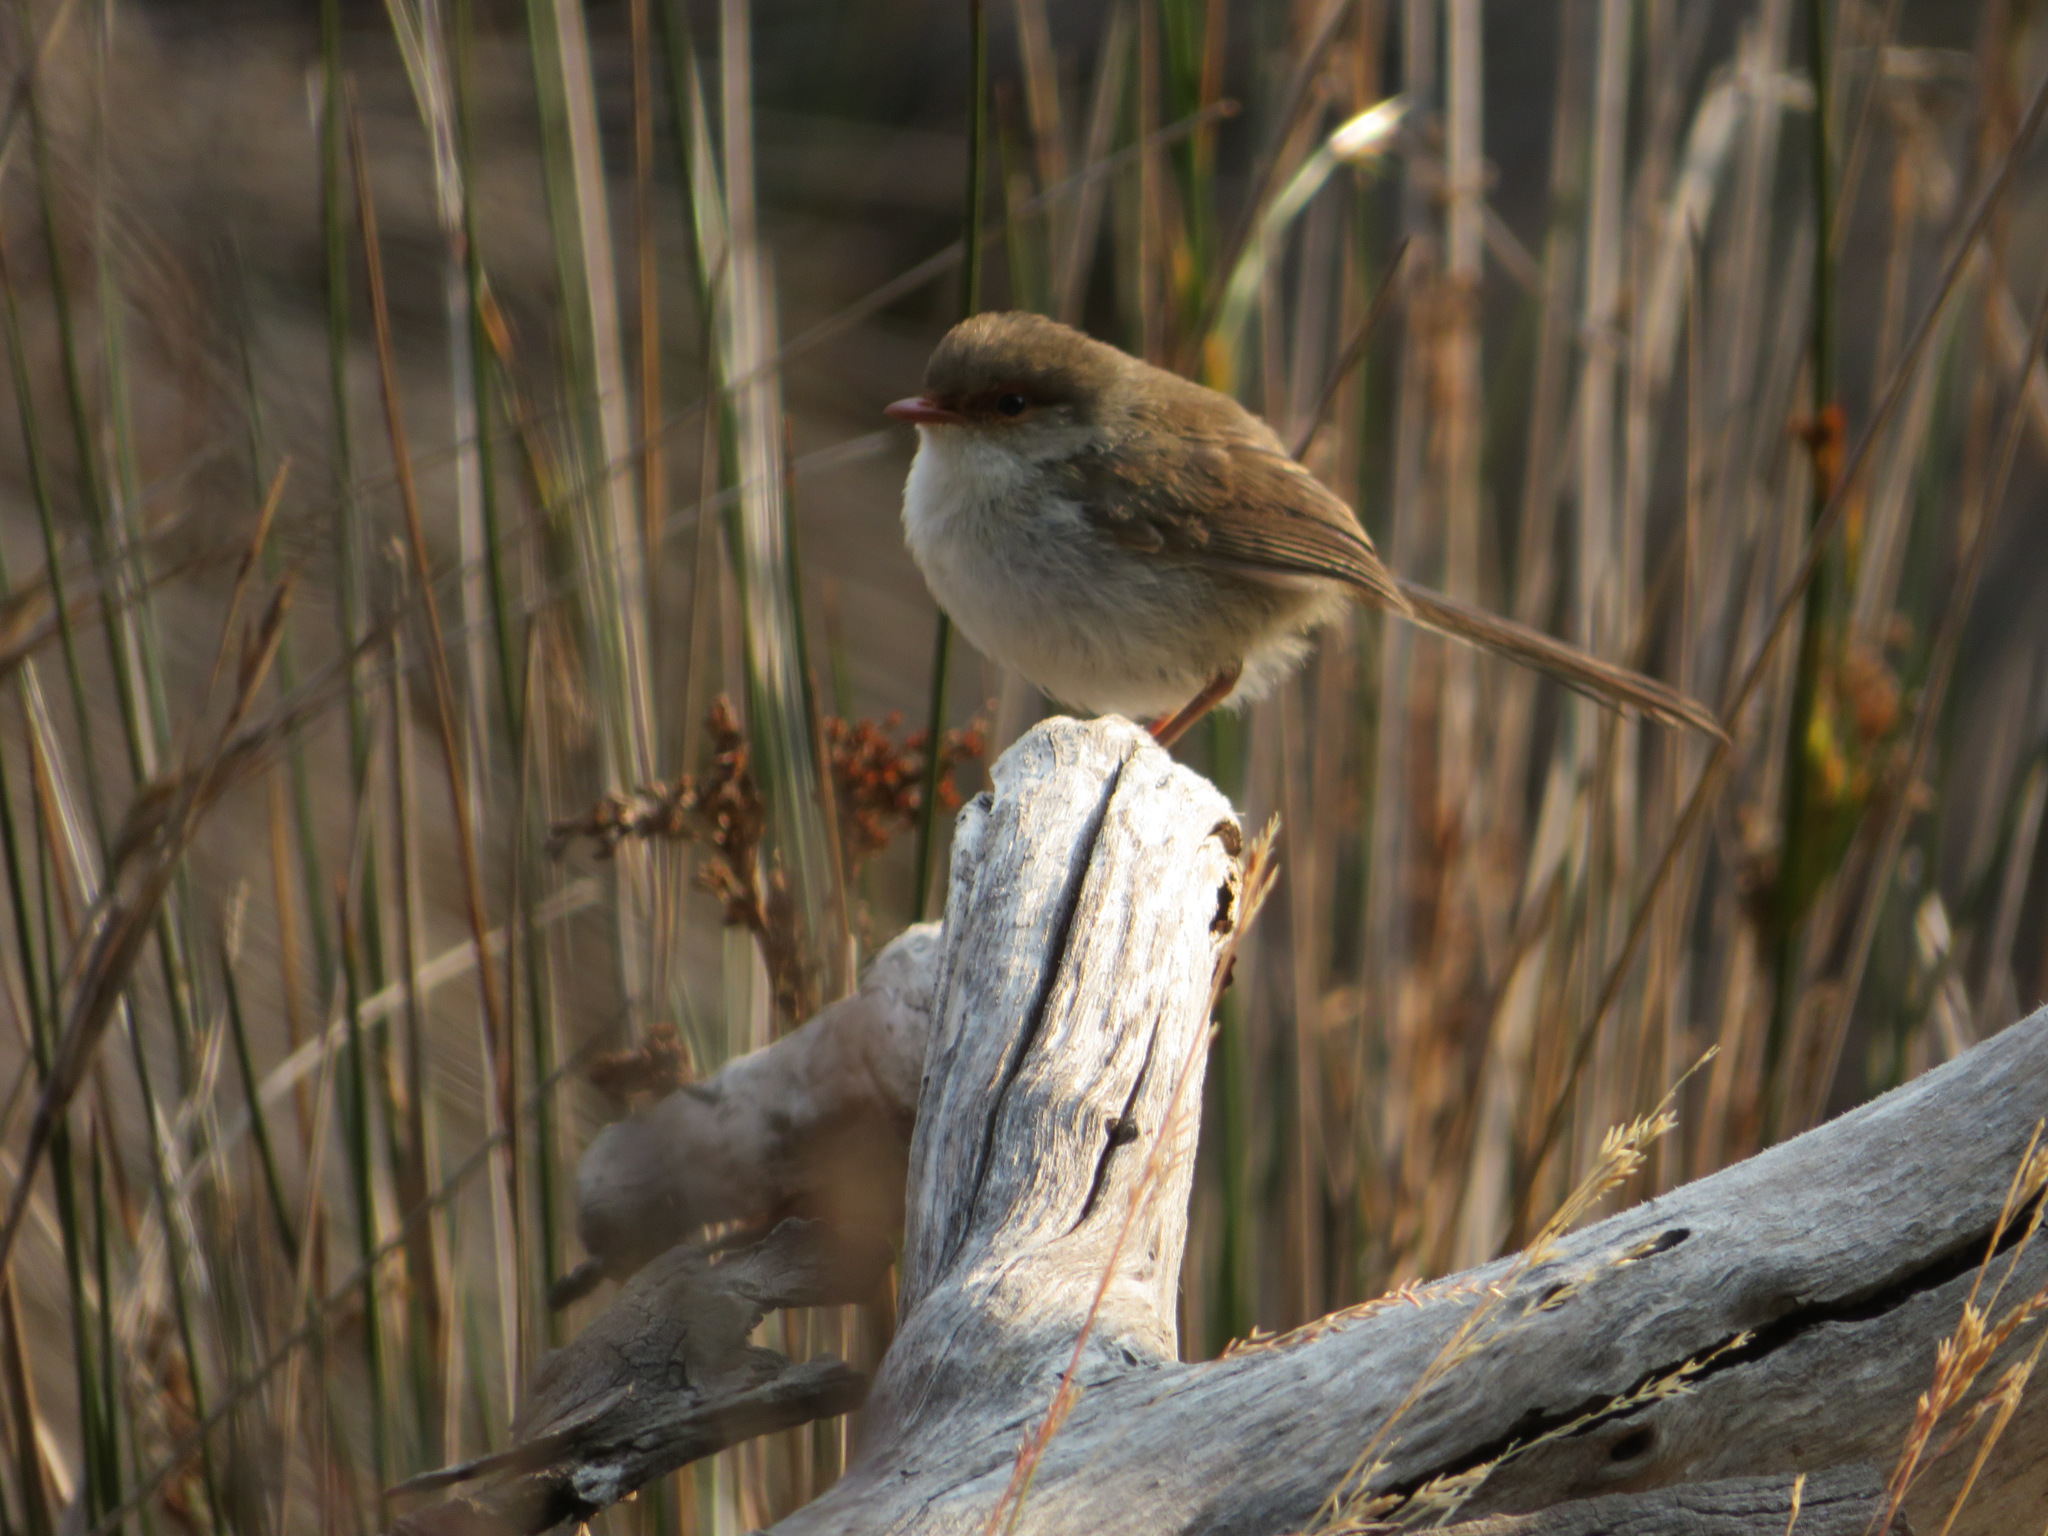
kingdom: Animalia
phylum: Chordata
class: Aves
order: Passeriformes
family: Maluridae
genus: Malurus
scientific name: Malurus cyaneus
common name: Superb fairywren
